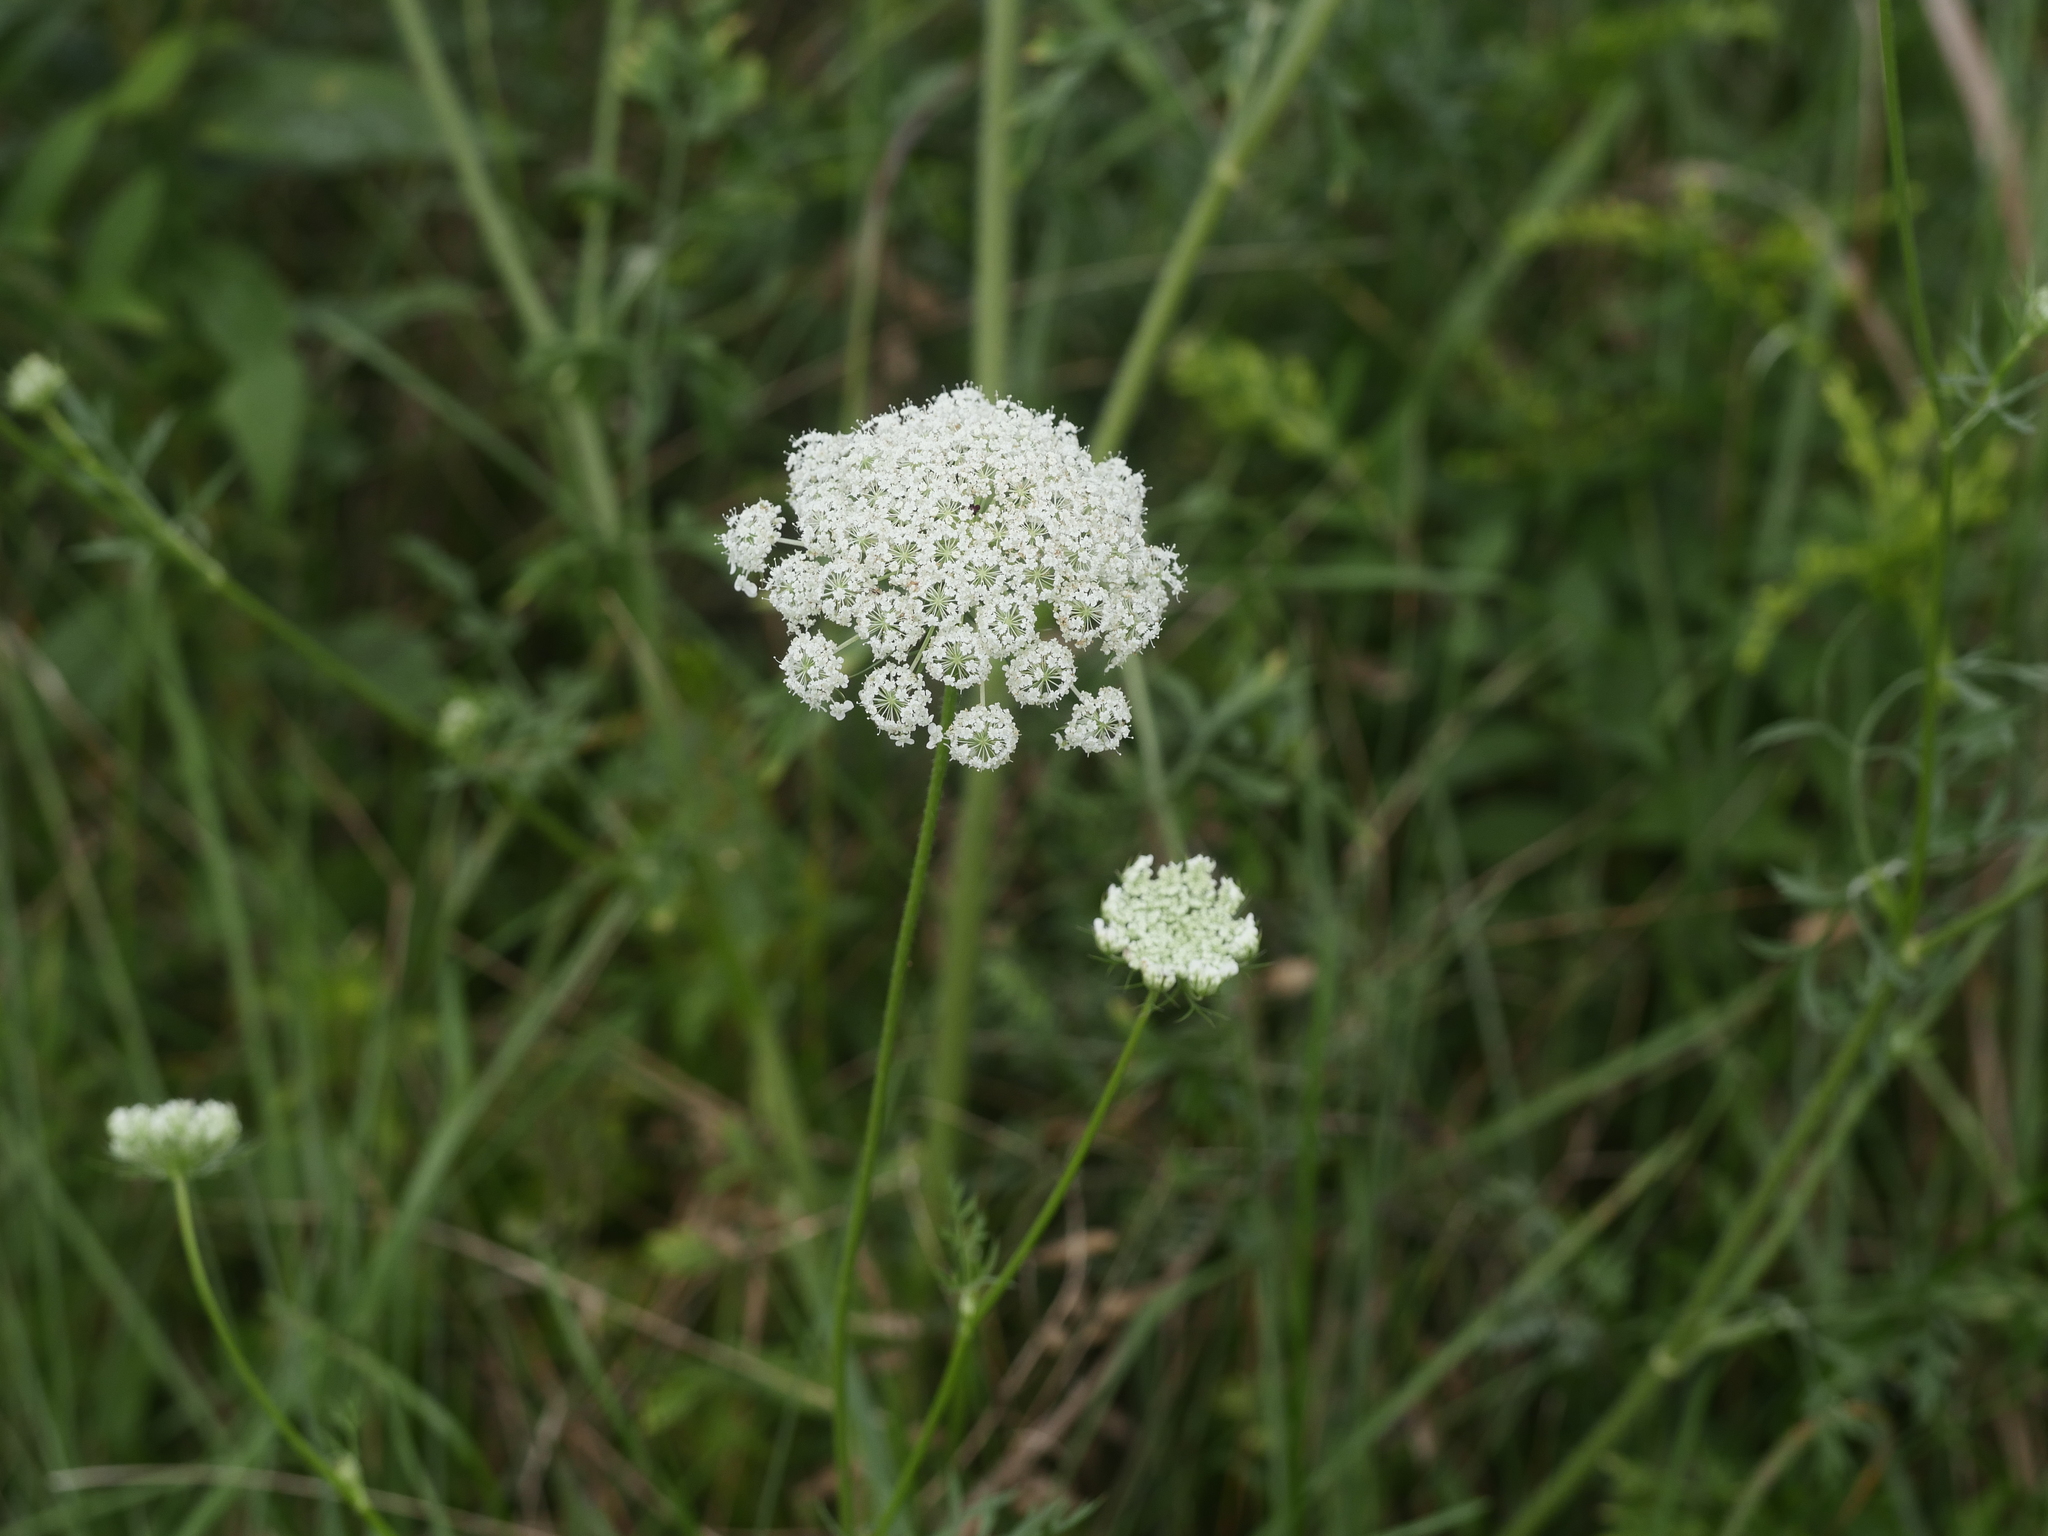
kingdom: Plantae
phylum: Tracheophyta
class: Magnoliopsida
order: Apiales
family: Apiaceae
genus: Daucus
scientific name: Daucus carota
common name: Wild carrot
